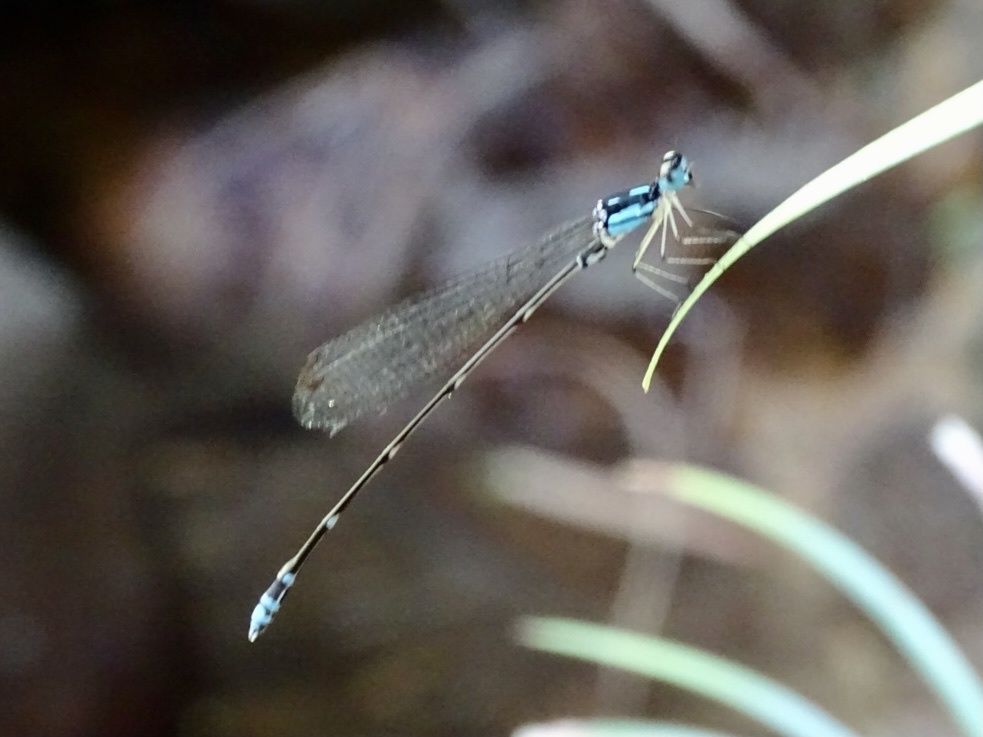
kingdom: Animalia
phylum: Arthropoda
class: Insecta
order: Odonata
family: Platycnemididae
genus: Coeliccia
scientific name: Coeliccia cyanomelas
